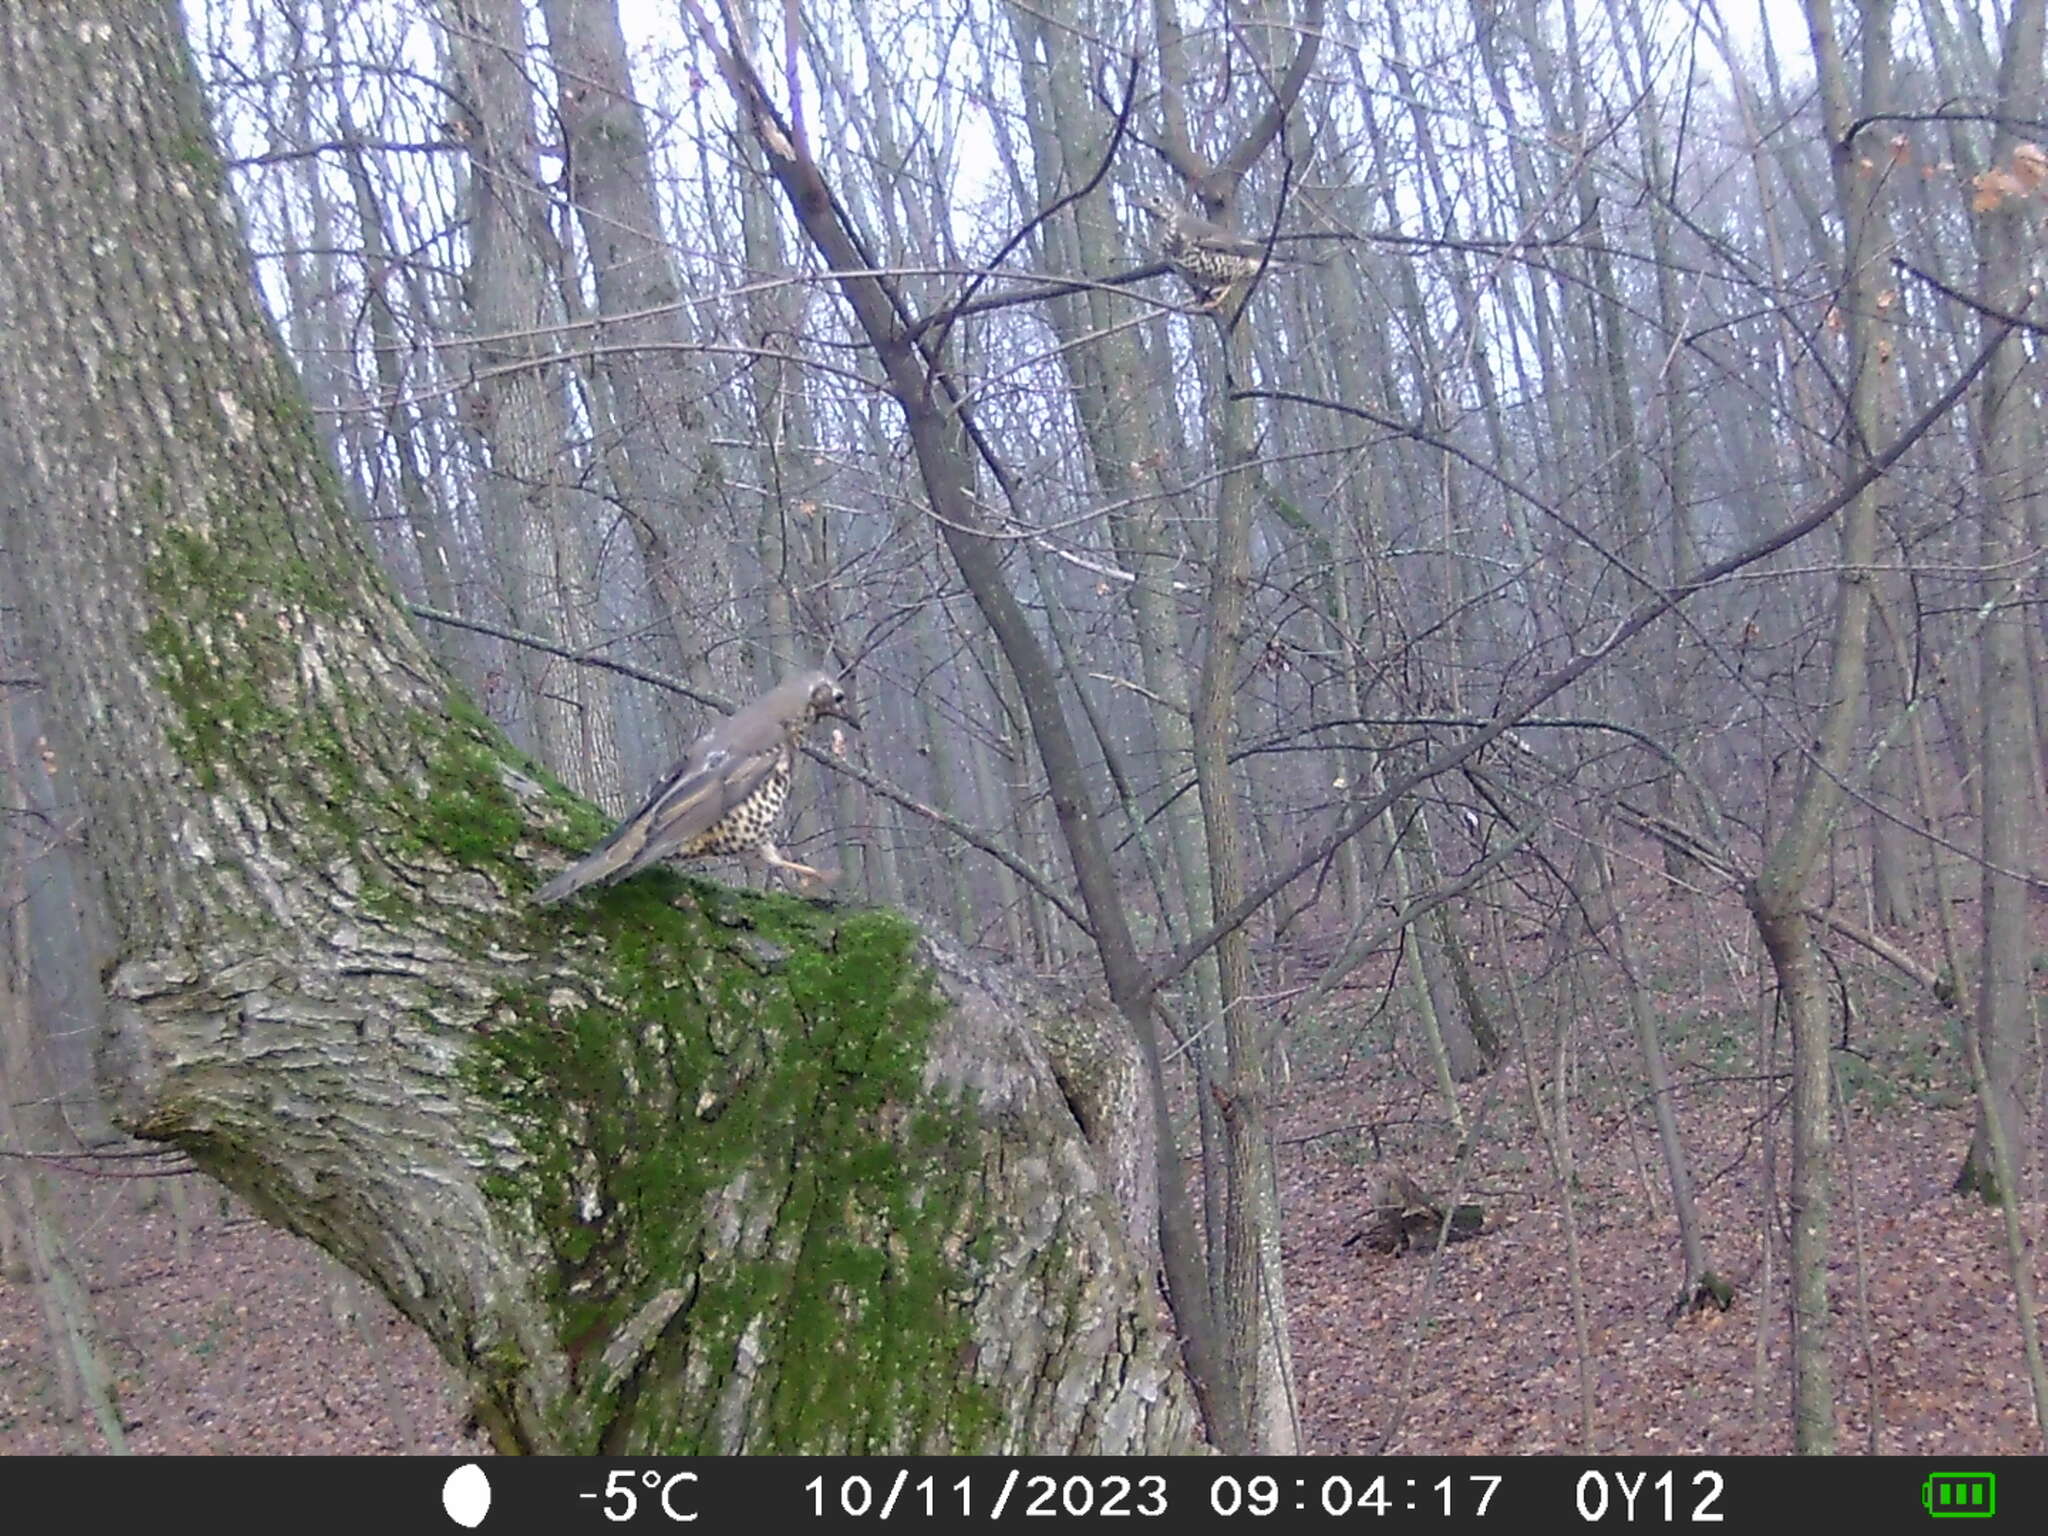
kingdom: Animalia
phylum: Chordata
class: Aves
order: Passeriformes
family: Turdidae
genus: Turdus
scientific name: Turdus viscivorus
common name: Mistle thrush
